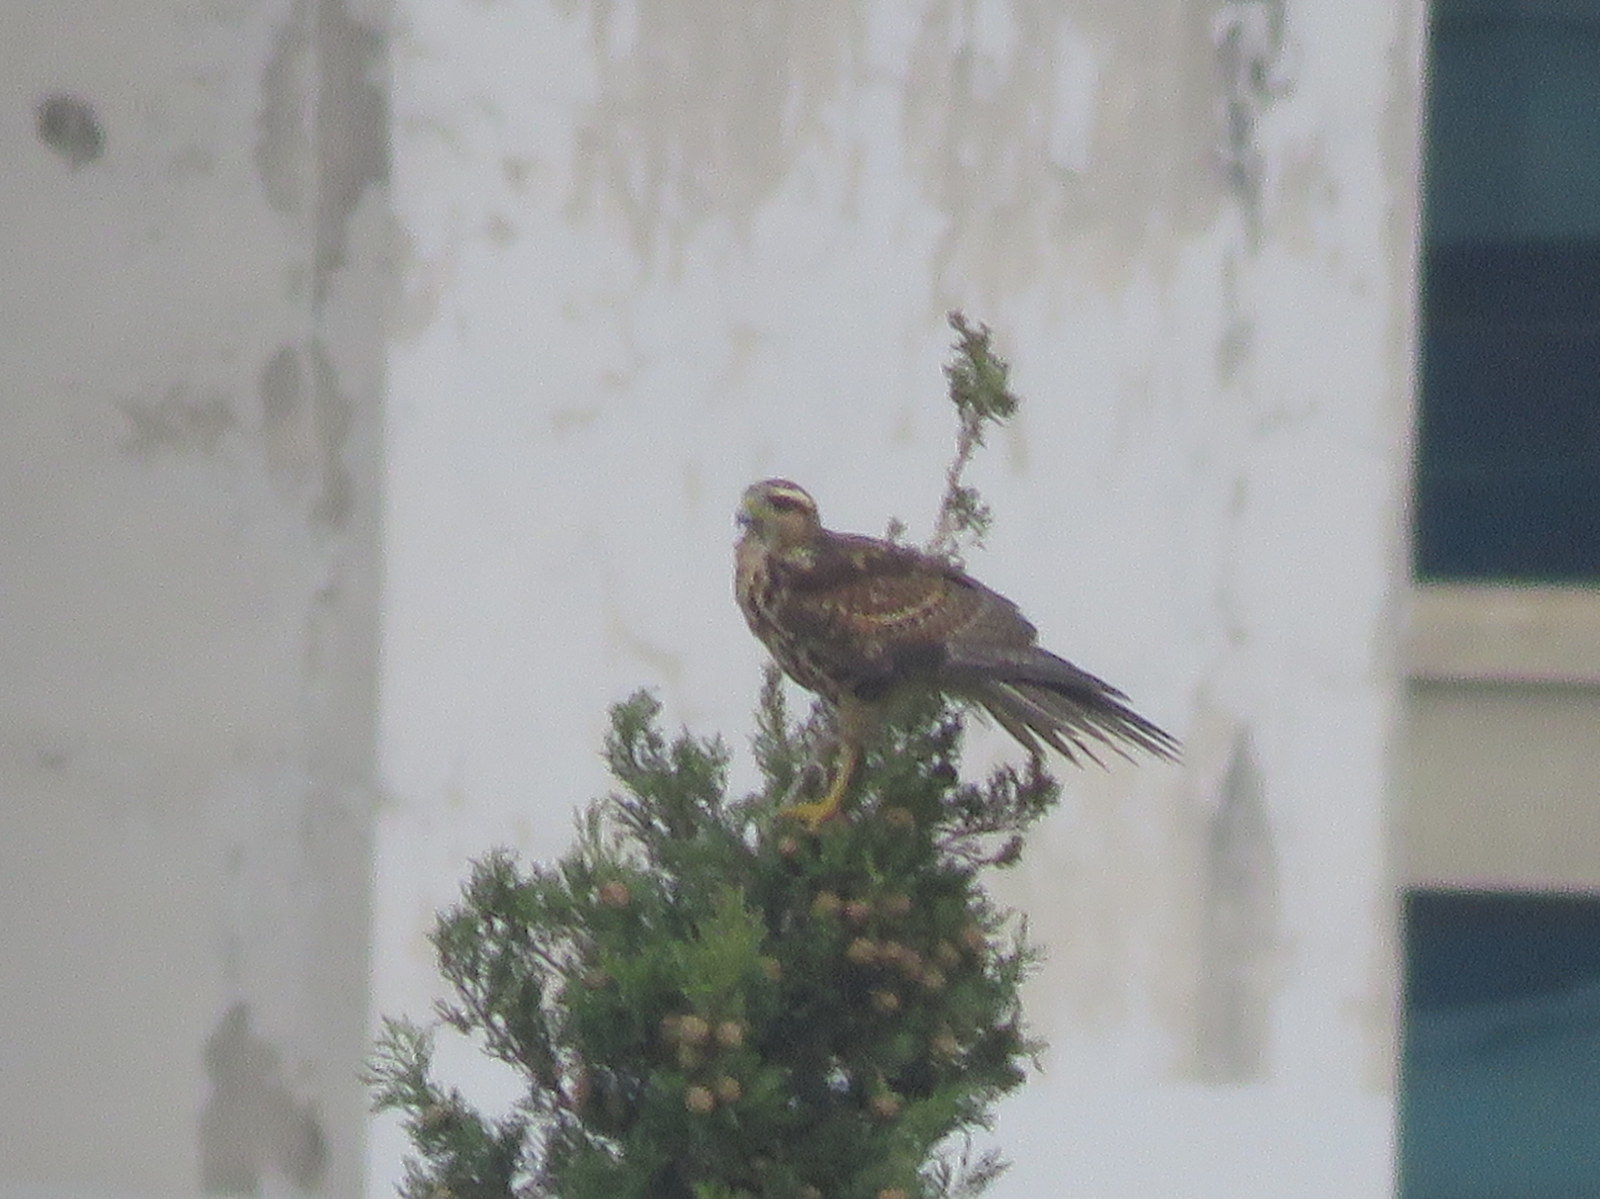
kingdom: Animalia
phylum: Chordata
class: Aves
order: Accipitriformes
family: Accipitridae
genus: Parabuteo
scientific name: Parabuteo unicinctus
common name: Harris's hawk
